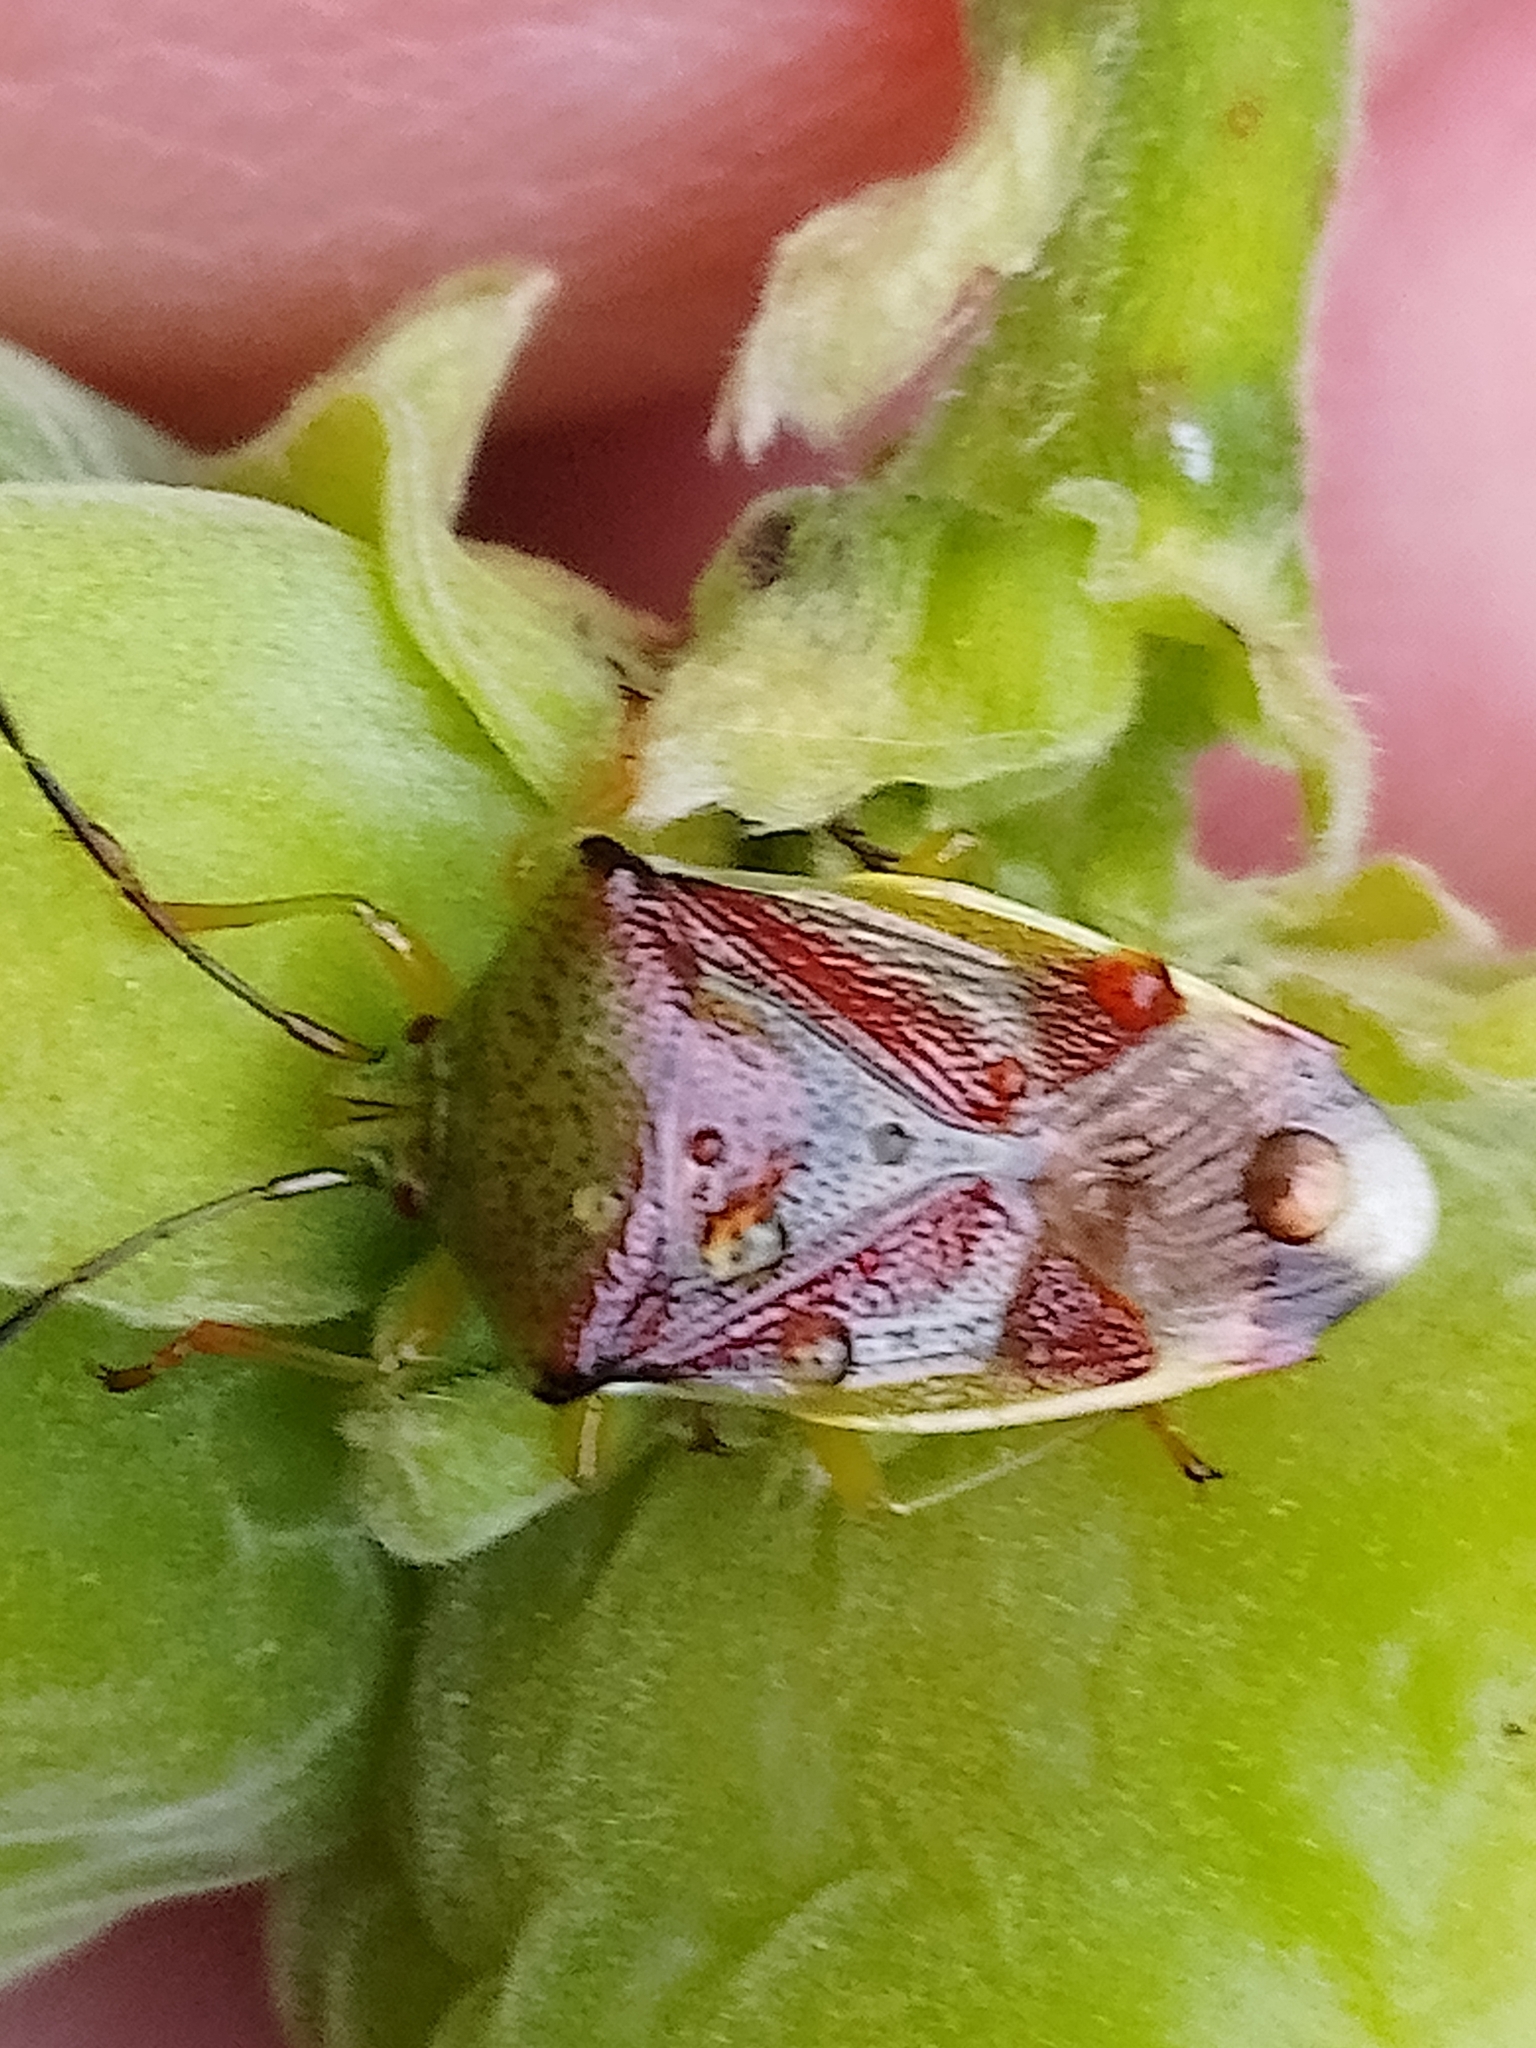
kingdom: Animalia
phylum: Arthropoda
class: Insecta
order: Hemiptera
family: Acanthosomatidae
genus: Elasmostethus
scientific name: Elasmostethus interstinctus
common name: Birch shieldbug
